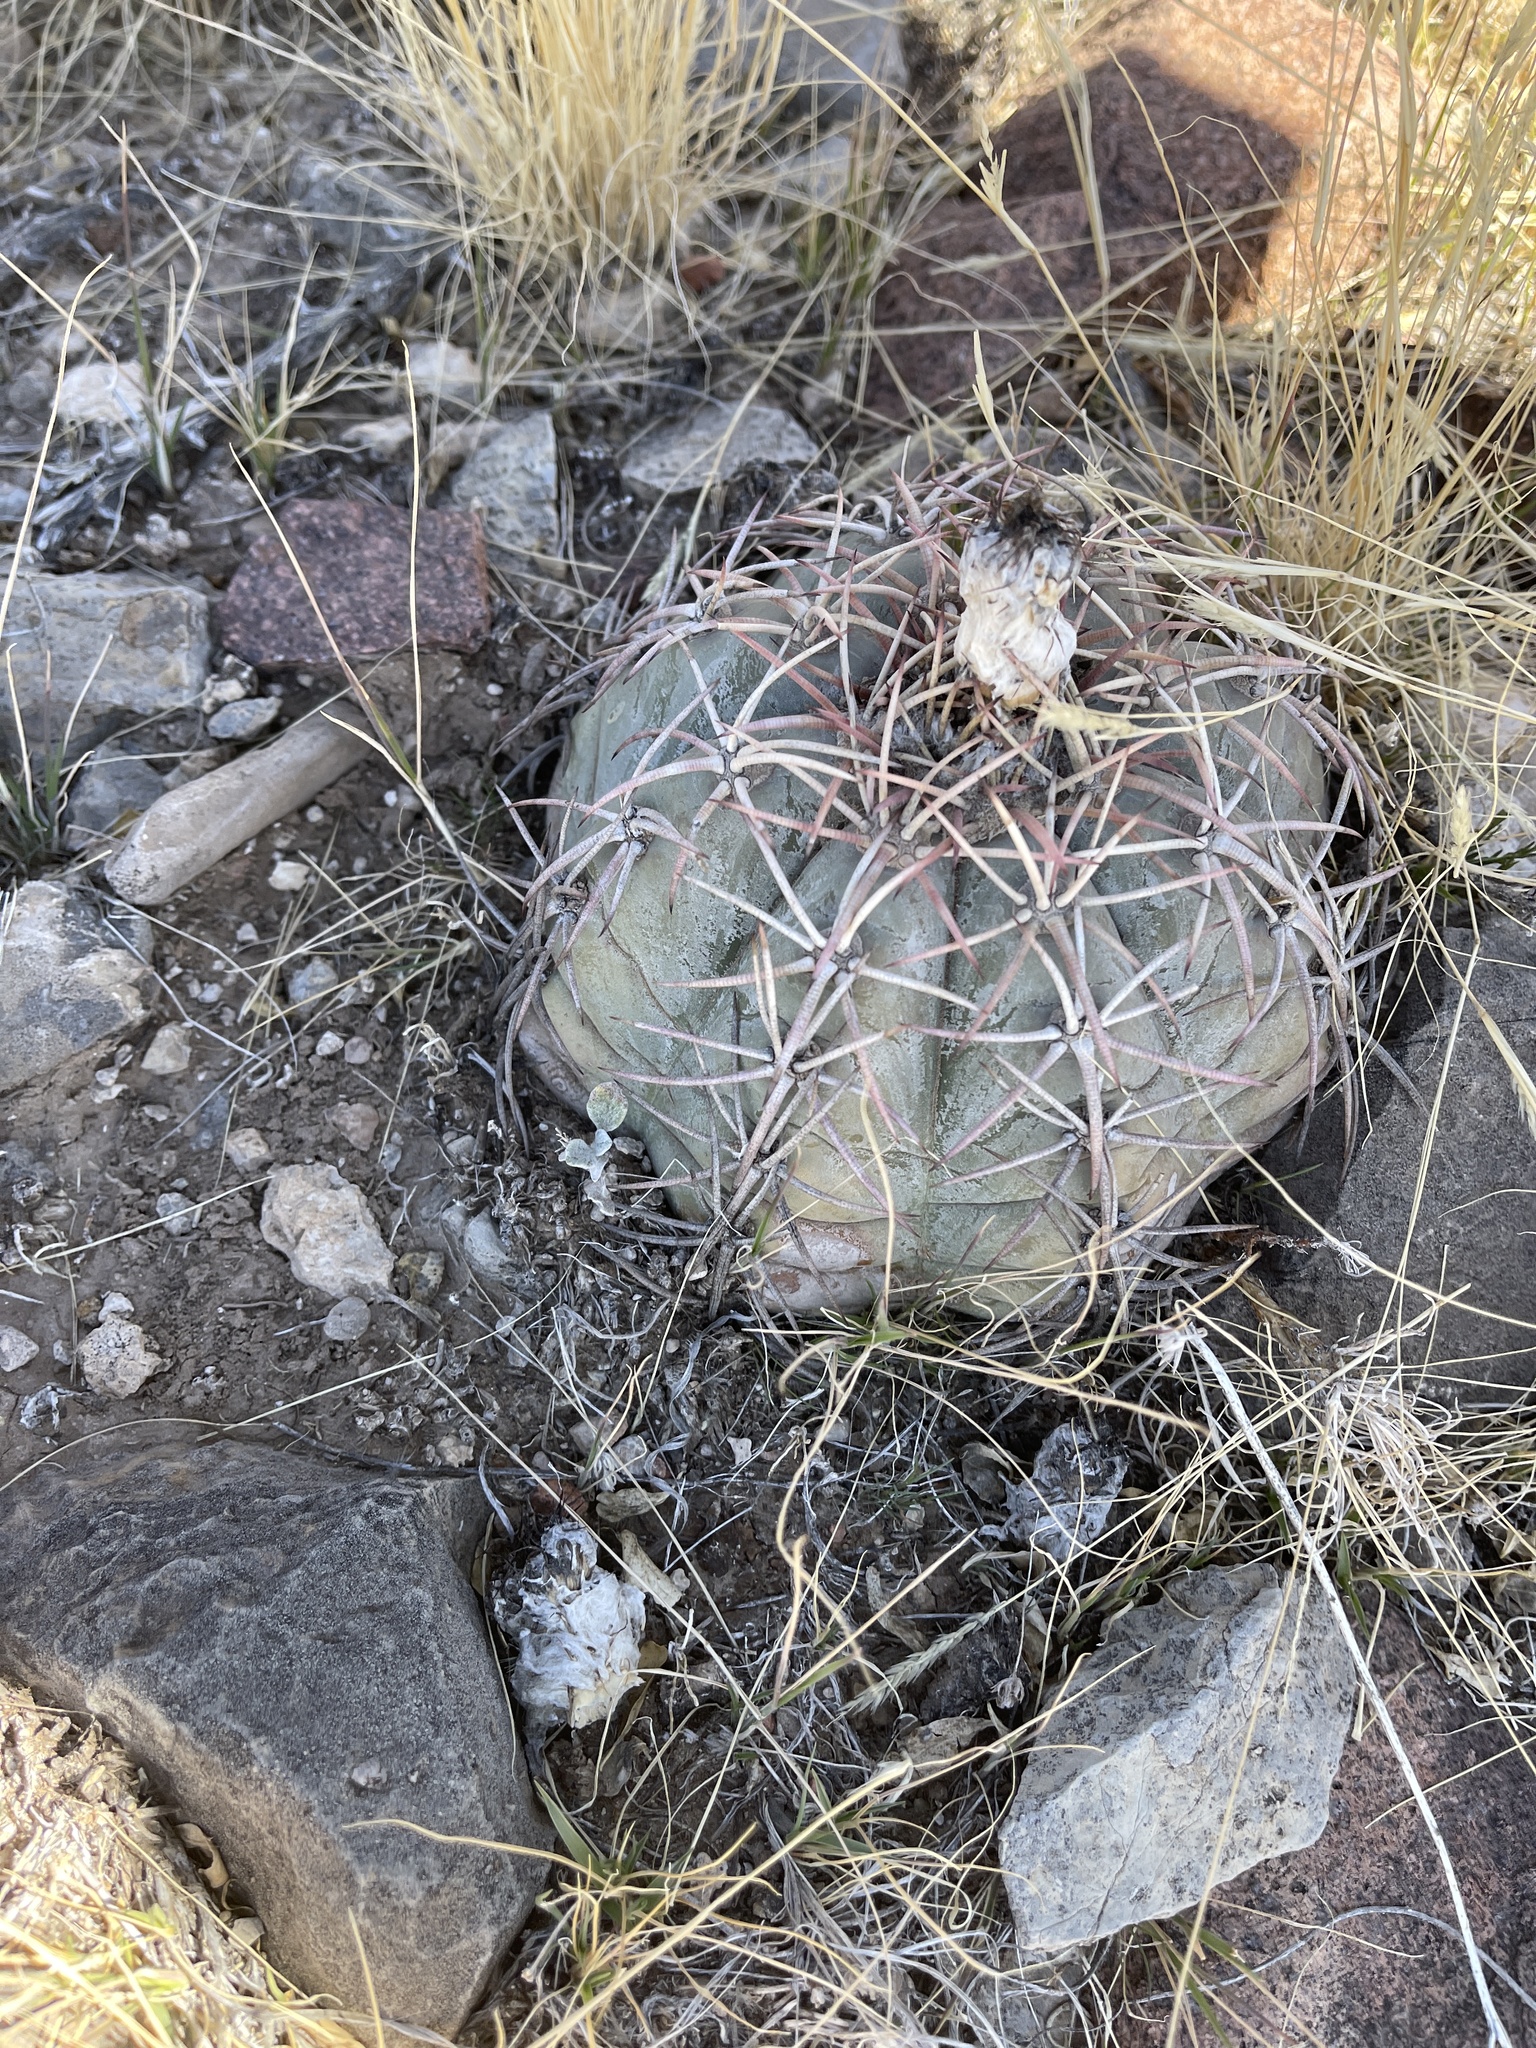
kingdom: Plantae
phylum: Tracheophyta
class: Magnoliopsida
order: Caryophyllales
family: Cactaceae
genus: Echinocactus
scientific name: Echinocactus horizonthalonius
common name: Devilshead
